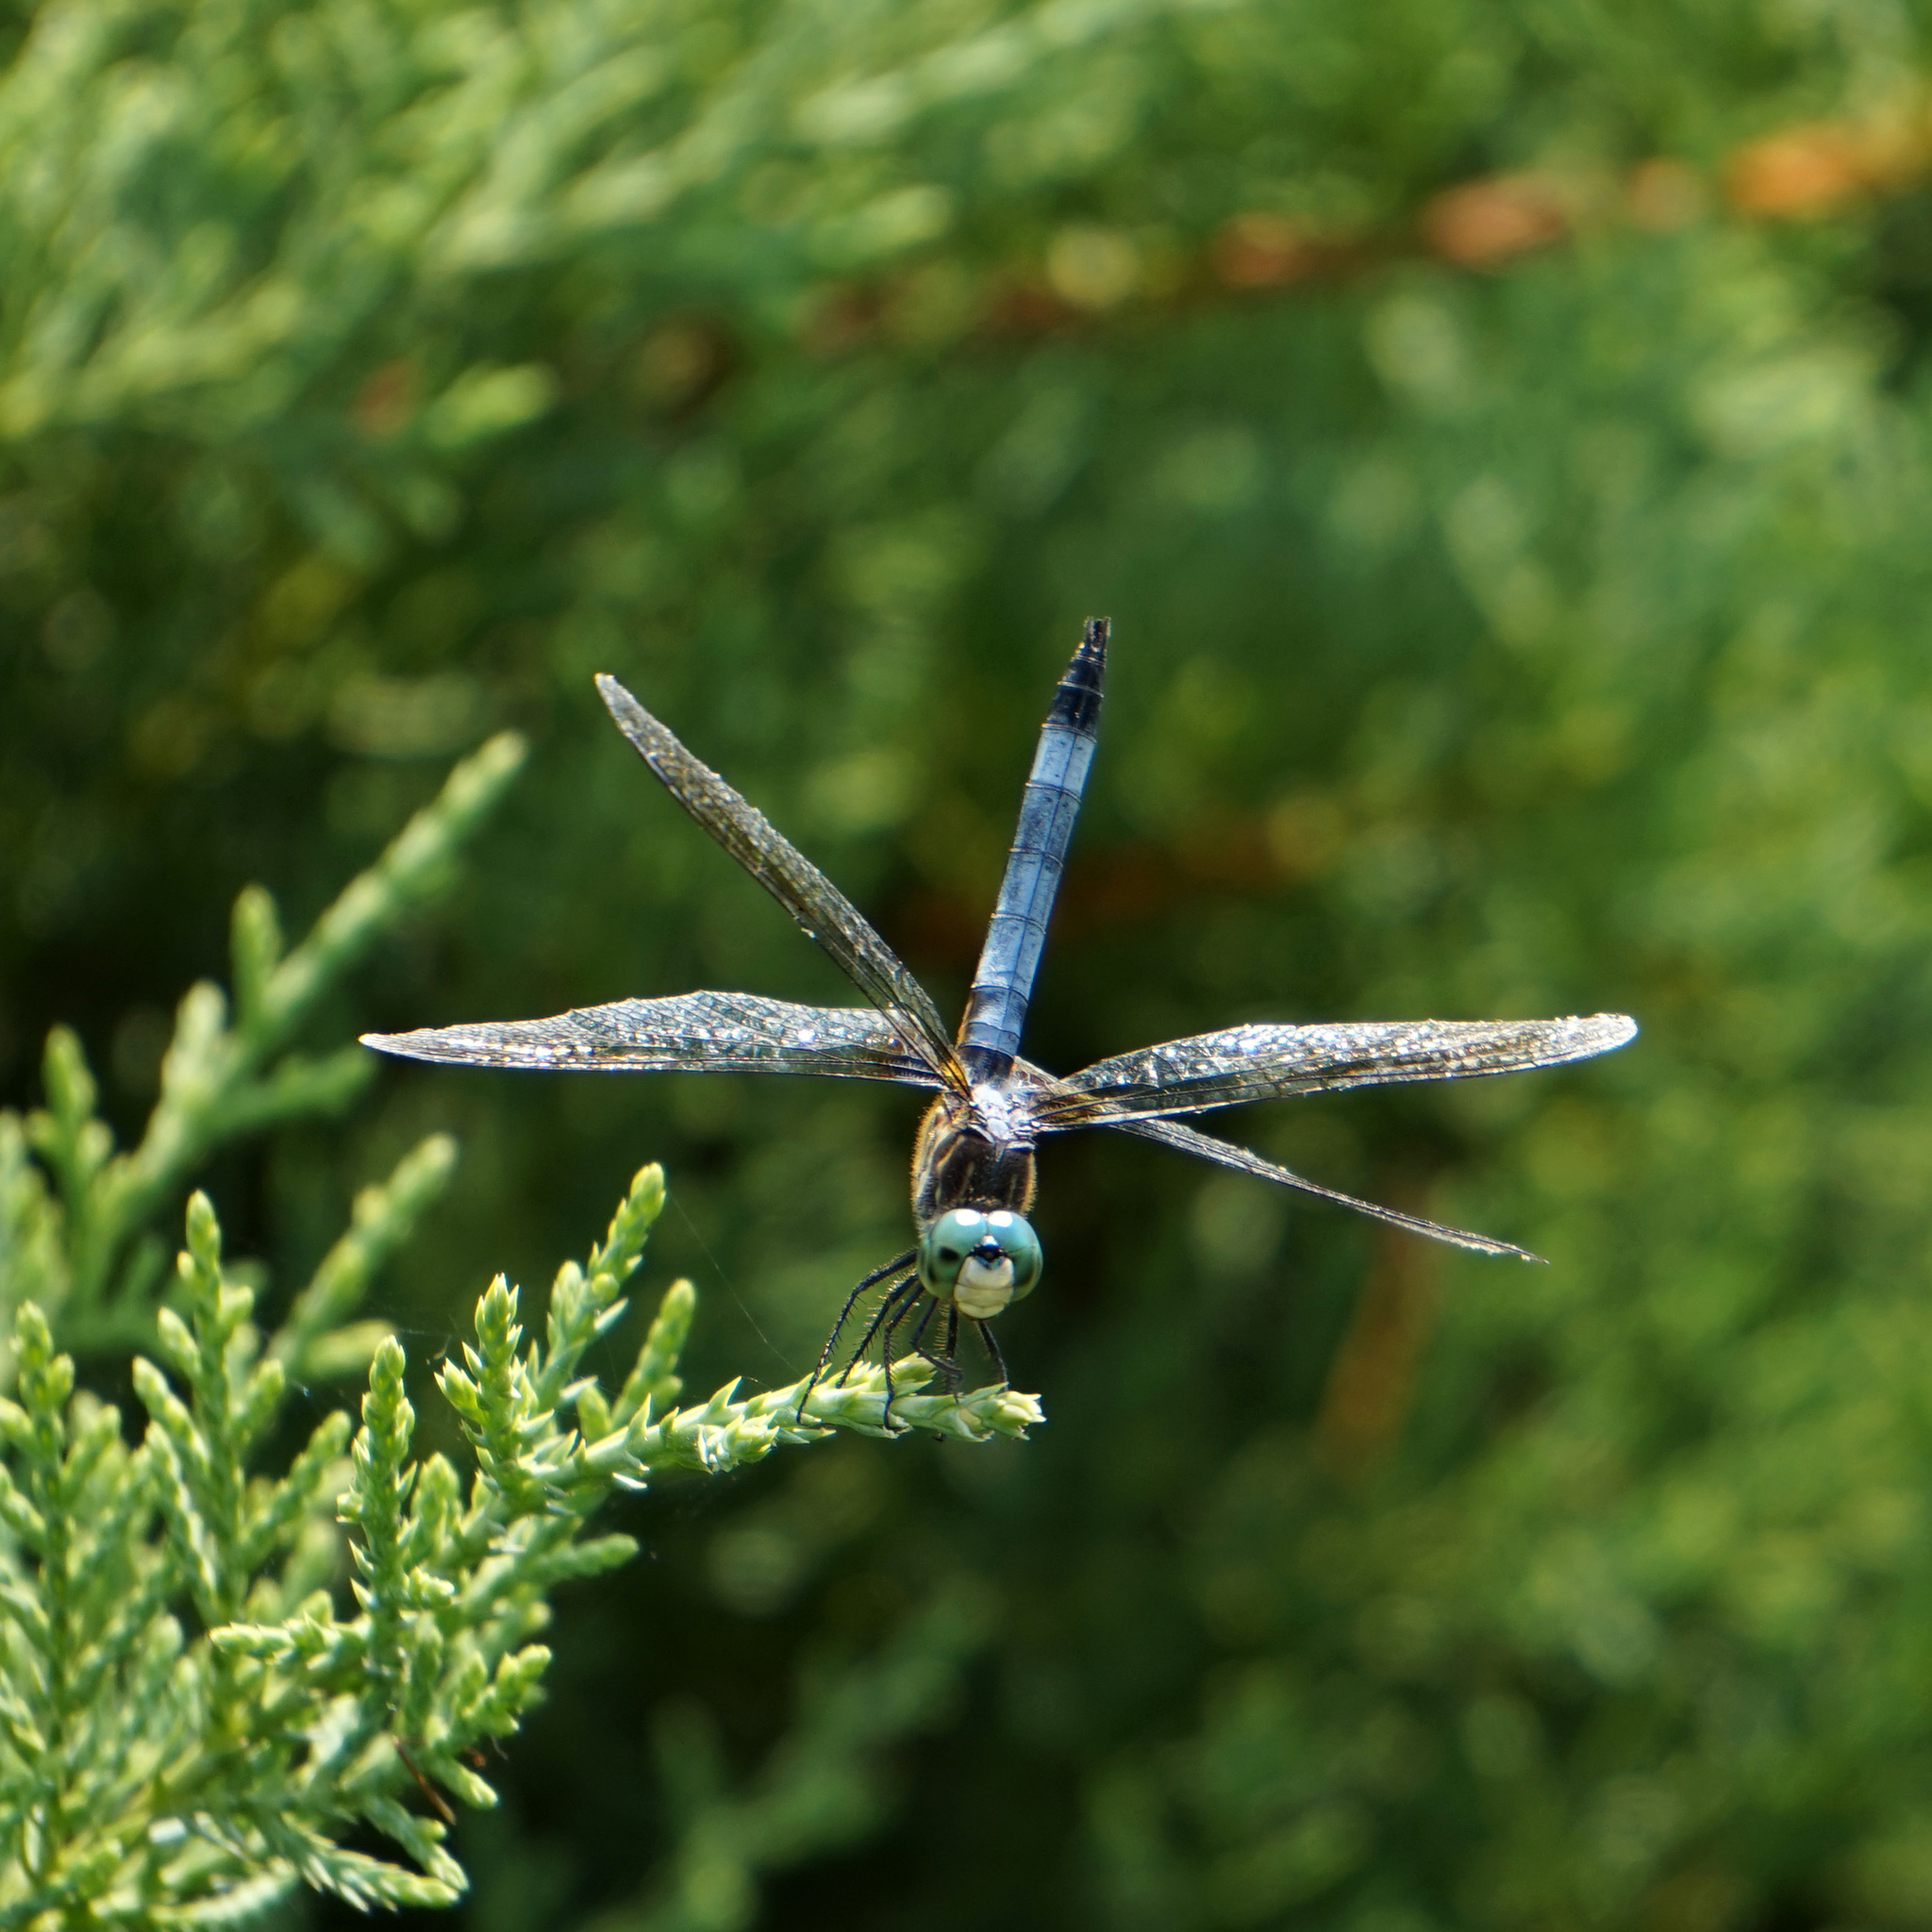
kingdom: Animalia
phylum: Arthropoda
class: Insecta
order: Odonata
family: Libellulidae
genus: Pachydiplax
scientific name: Pachydiplax longipennis
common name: Blue dasher
